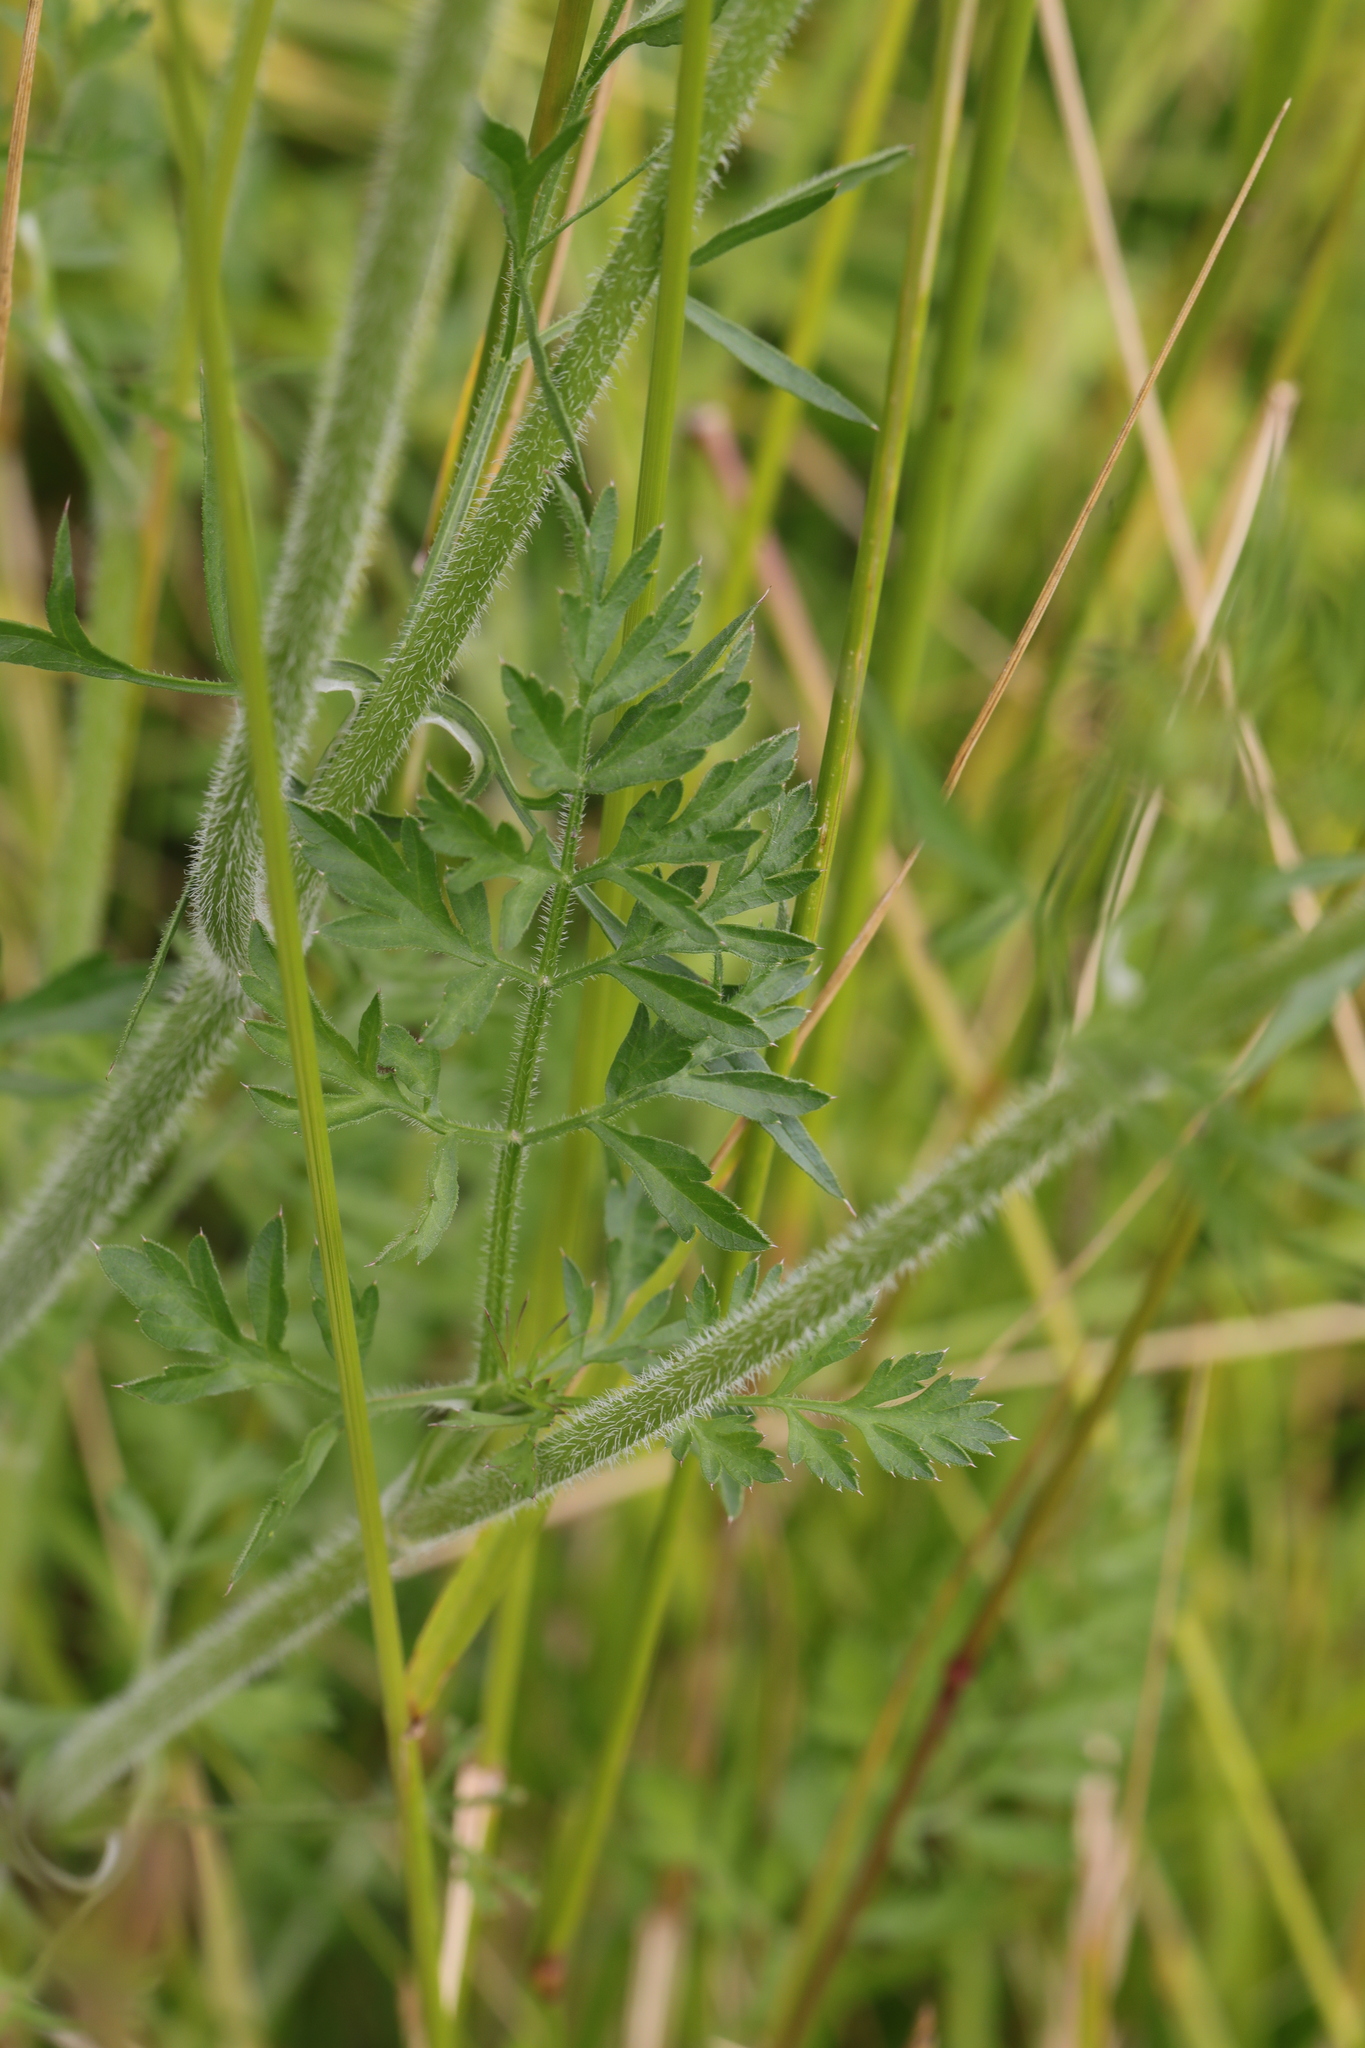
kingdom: Plantae
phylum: Tracheophyta
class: Magnoliopsida
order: Apiales
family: Apiaceae
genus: Daucus
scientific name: Daucus carota
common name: Wild carrot
